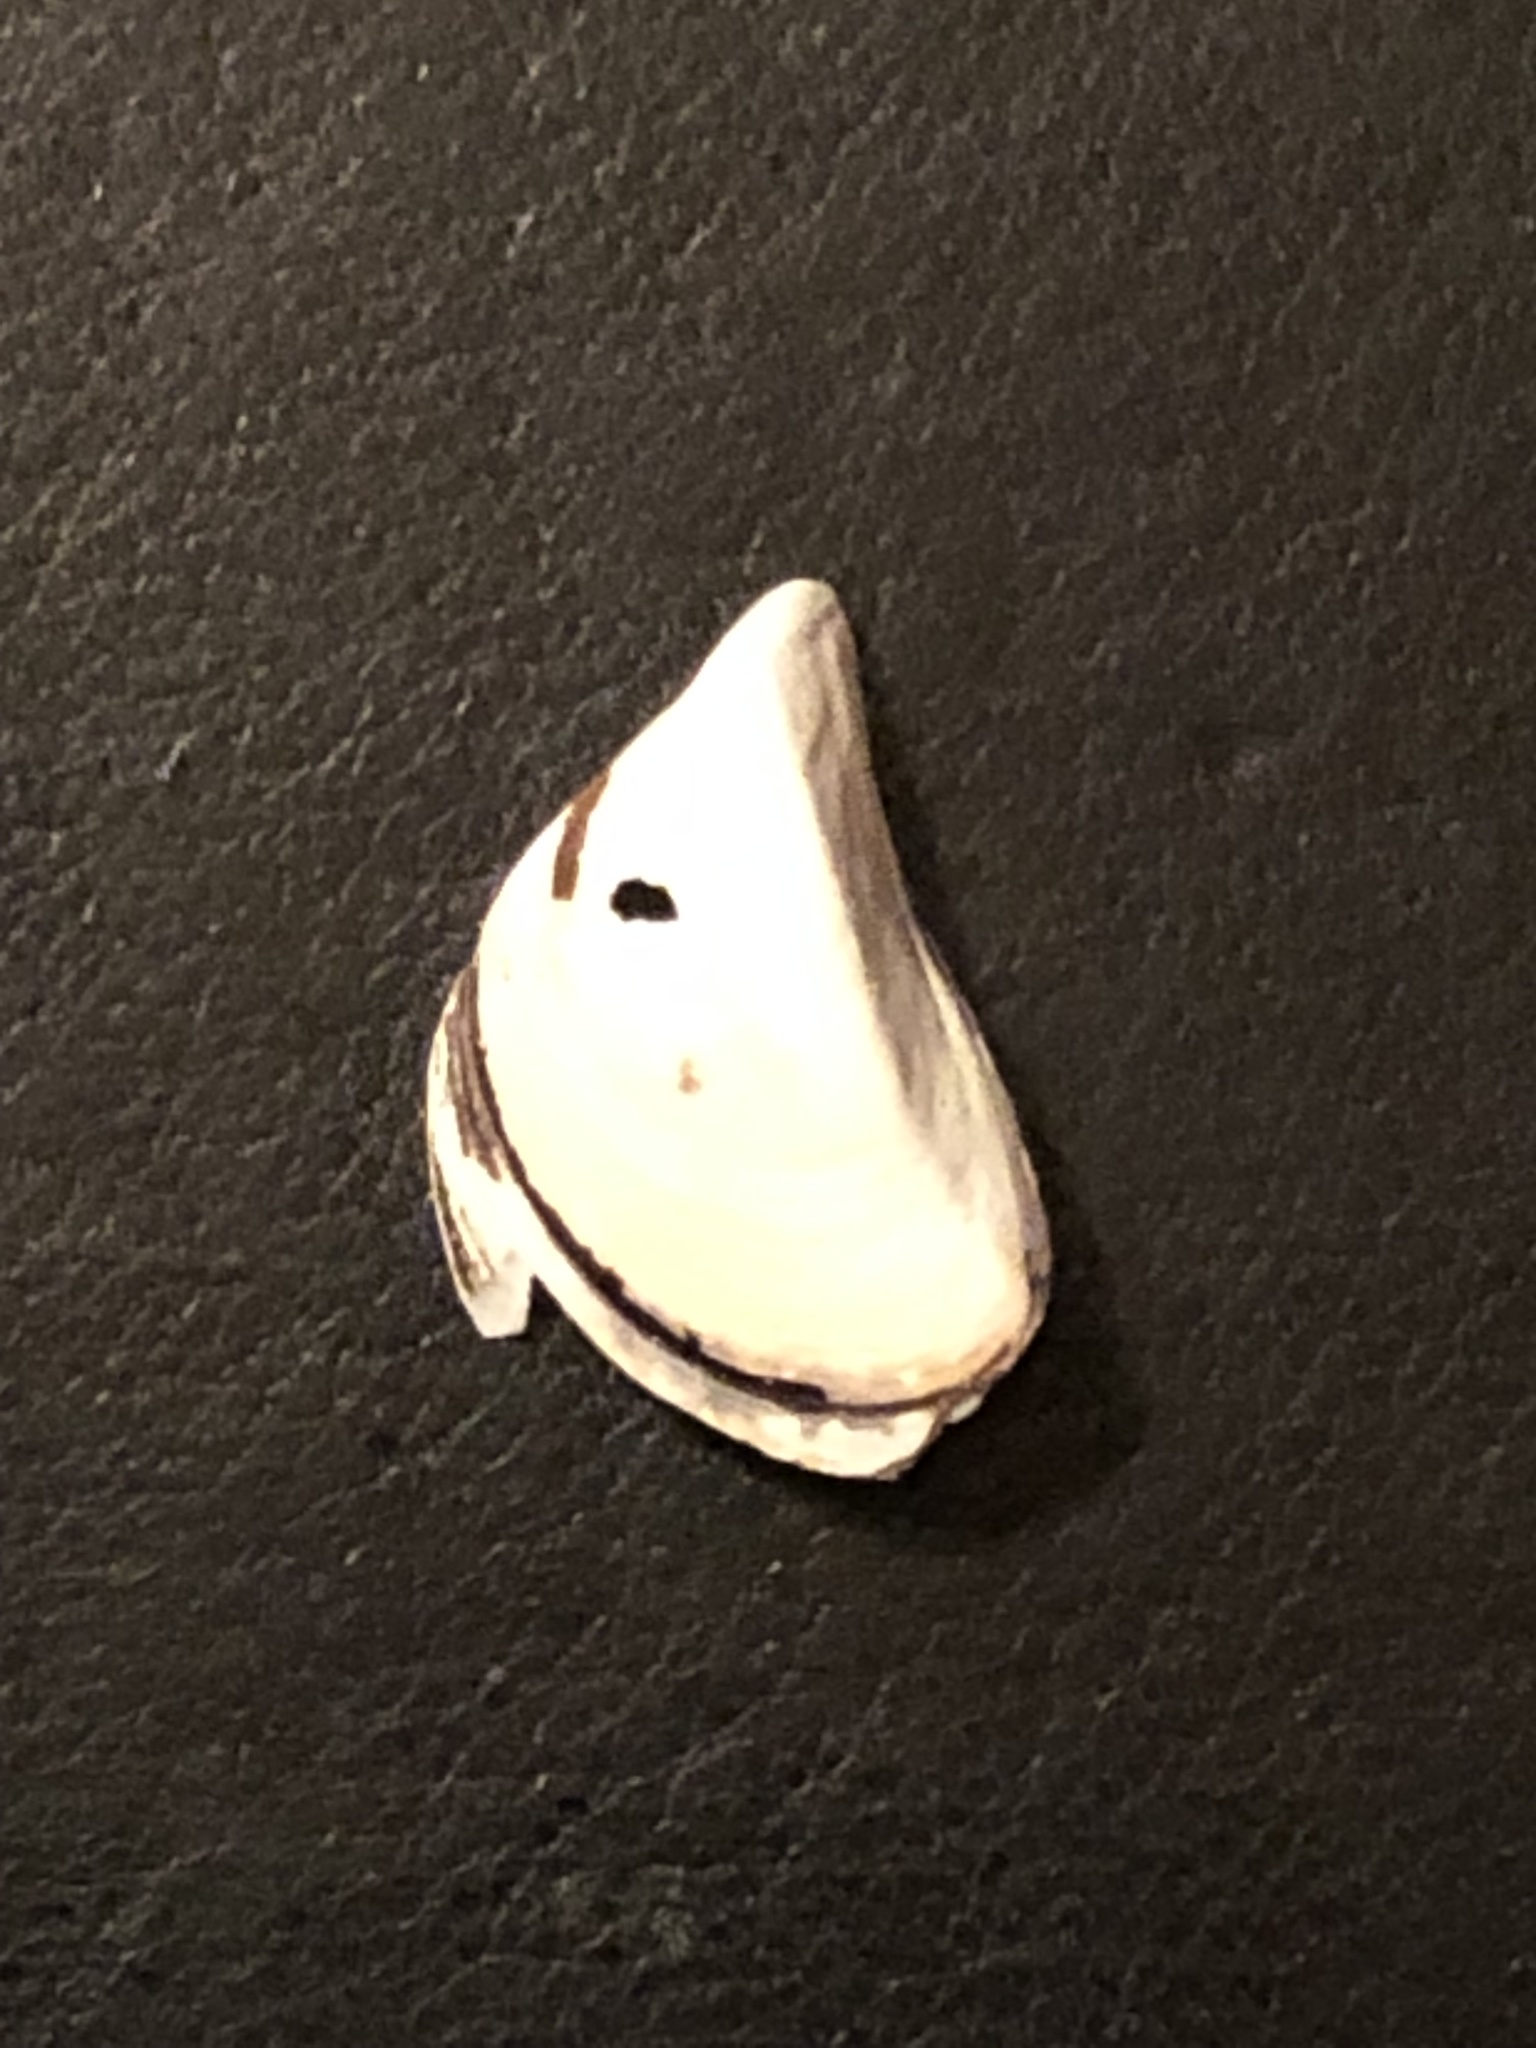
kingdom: Animalia
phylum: Mollusca
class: Bivalvia
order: Myida
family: Dreissenidae
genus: Dreissena
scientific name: Dreissena polymorpha
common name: Zebra mussel
